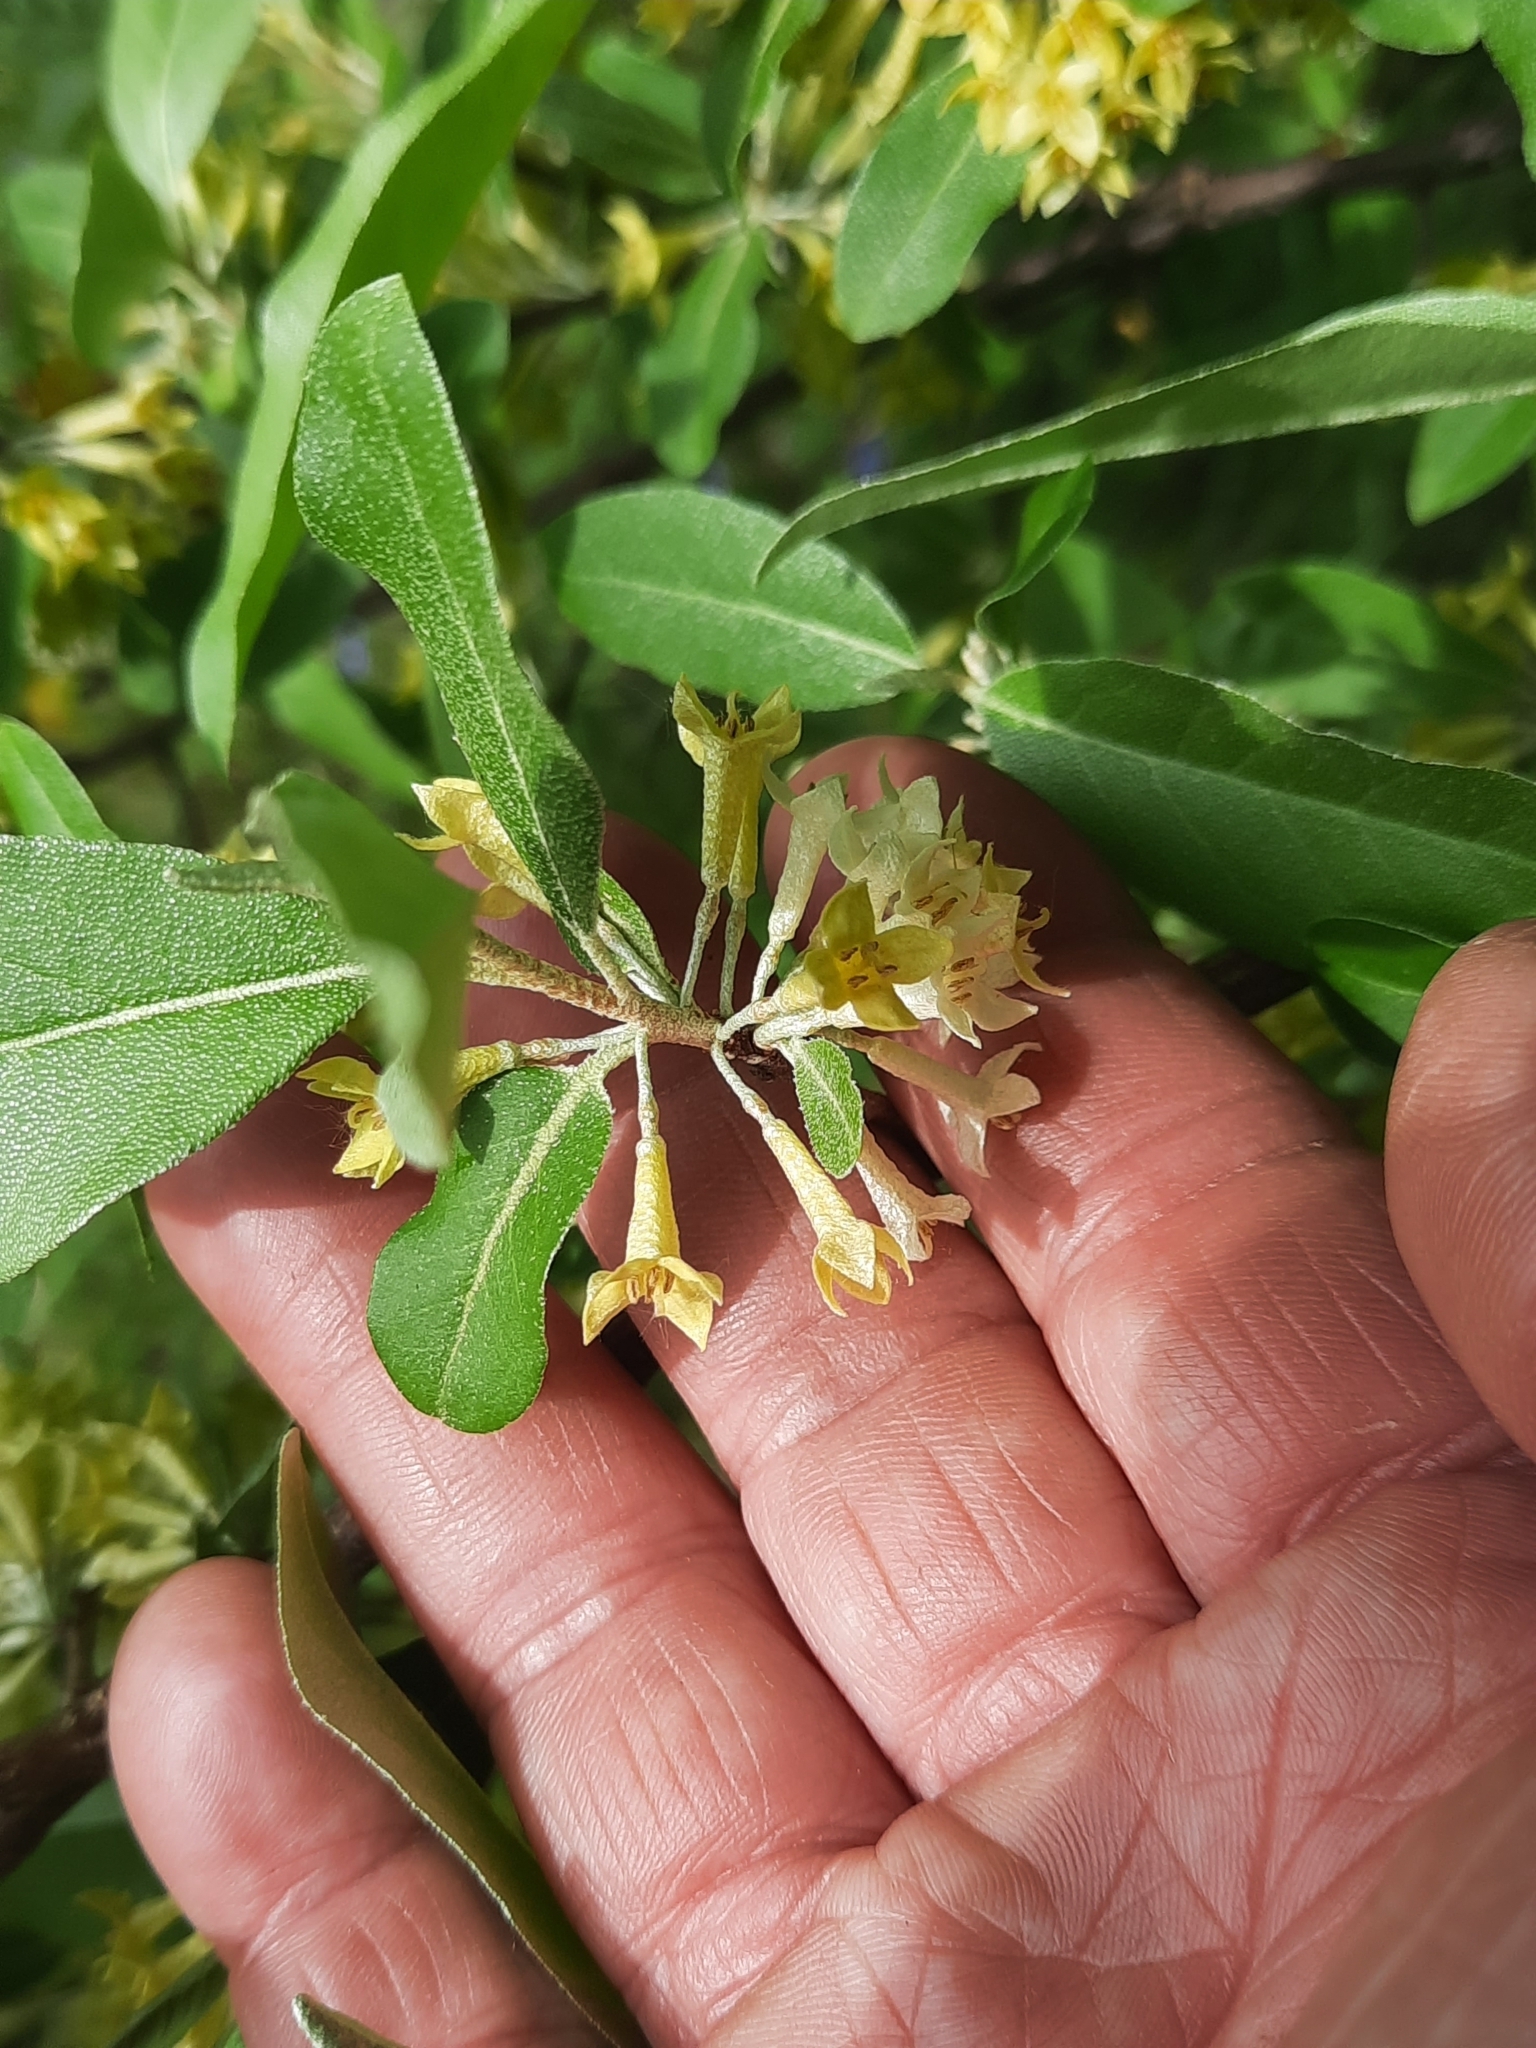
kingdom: Plantae
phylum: Tracheophyta
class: Magnoliopsida
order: Rosales
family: Elaeagnaceae
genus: Elaeagnus
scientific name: Elaeagnus umbellata
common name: Autumn olive
